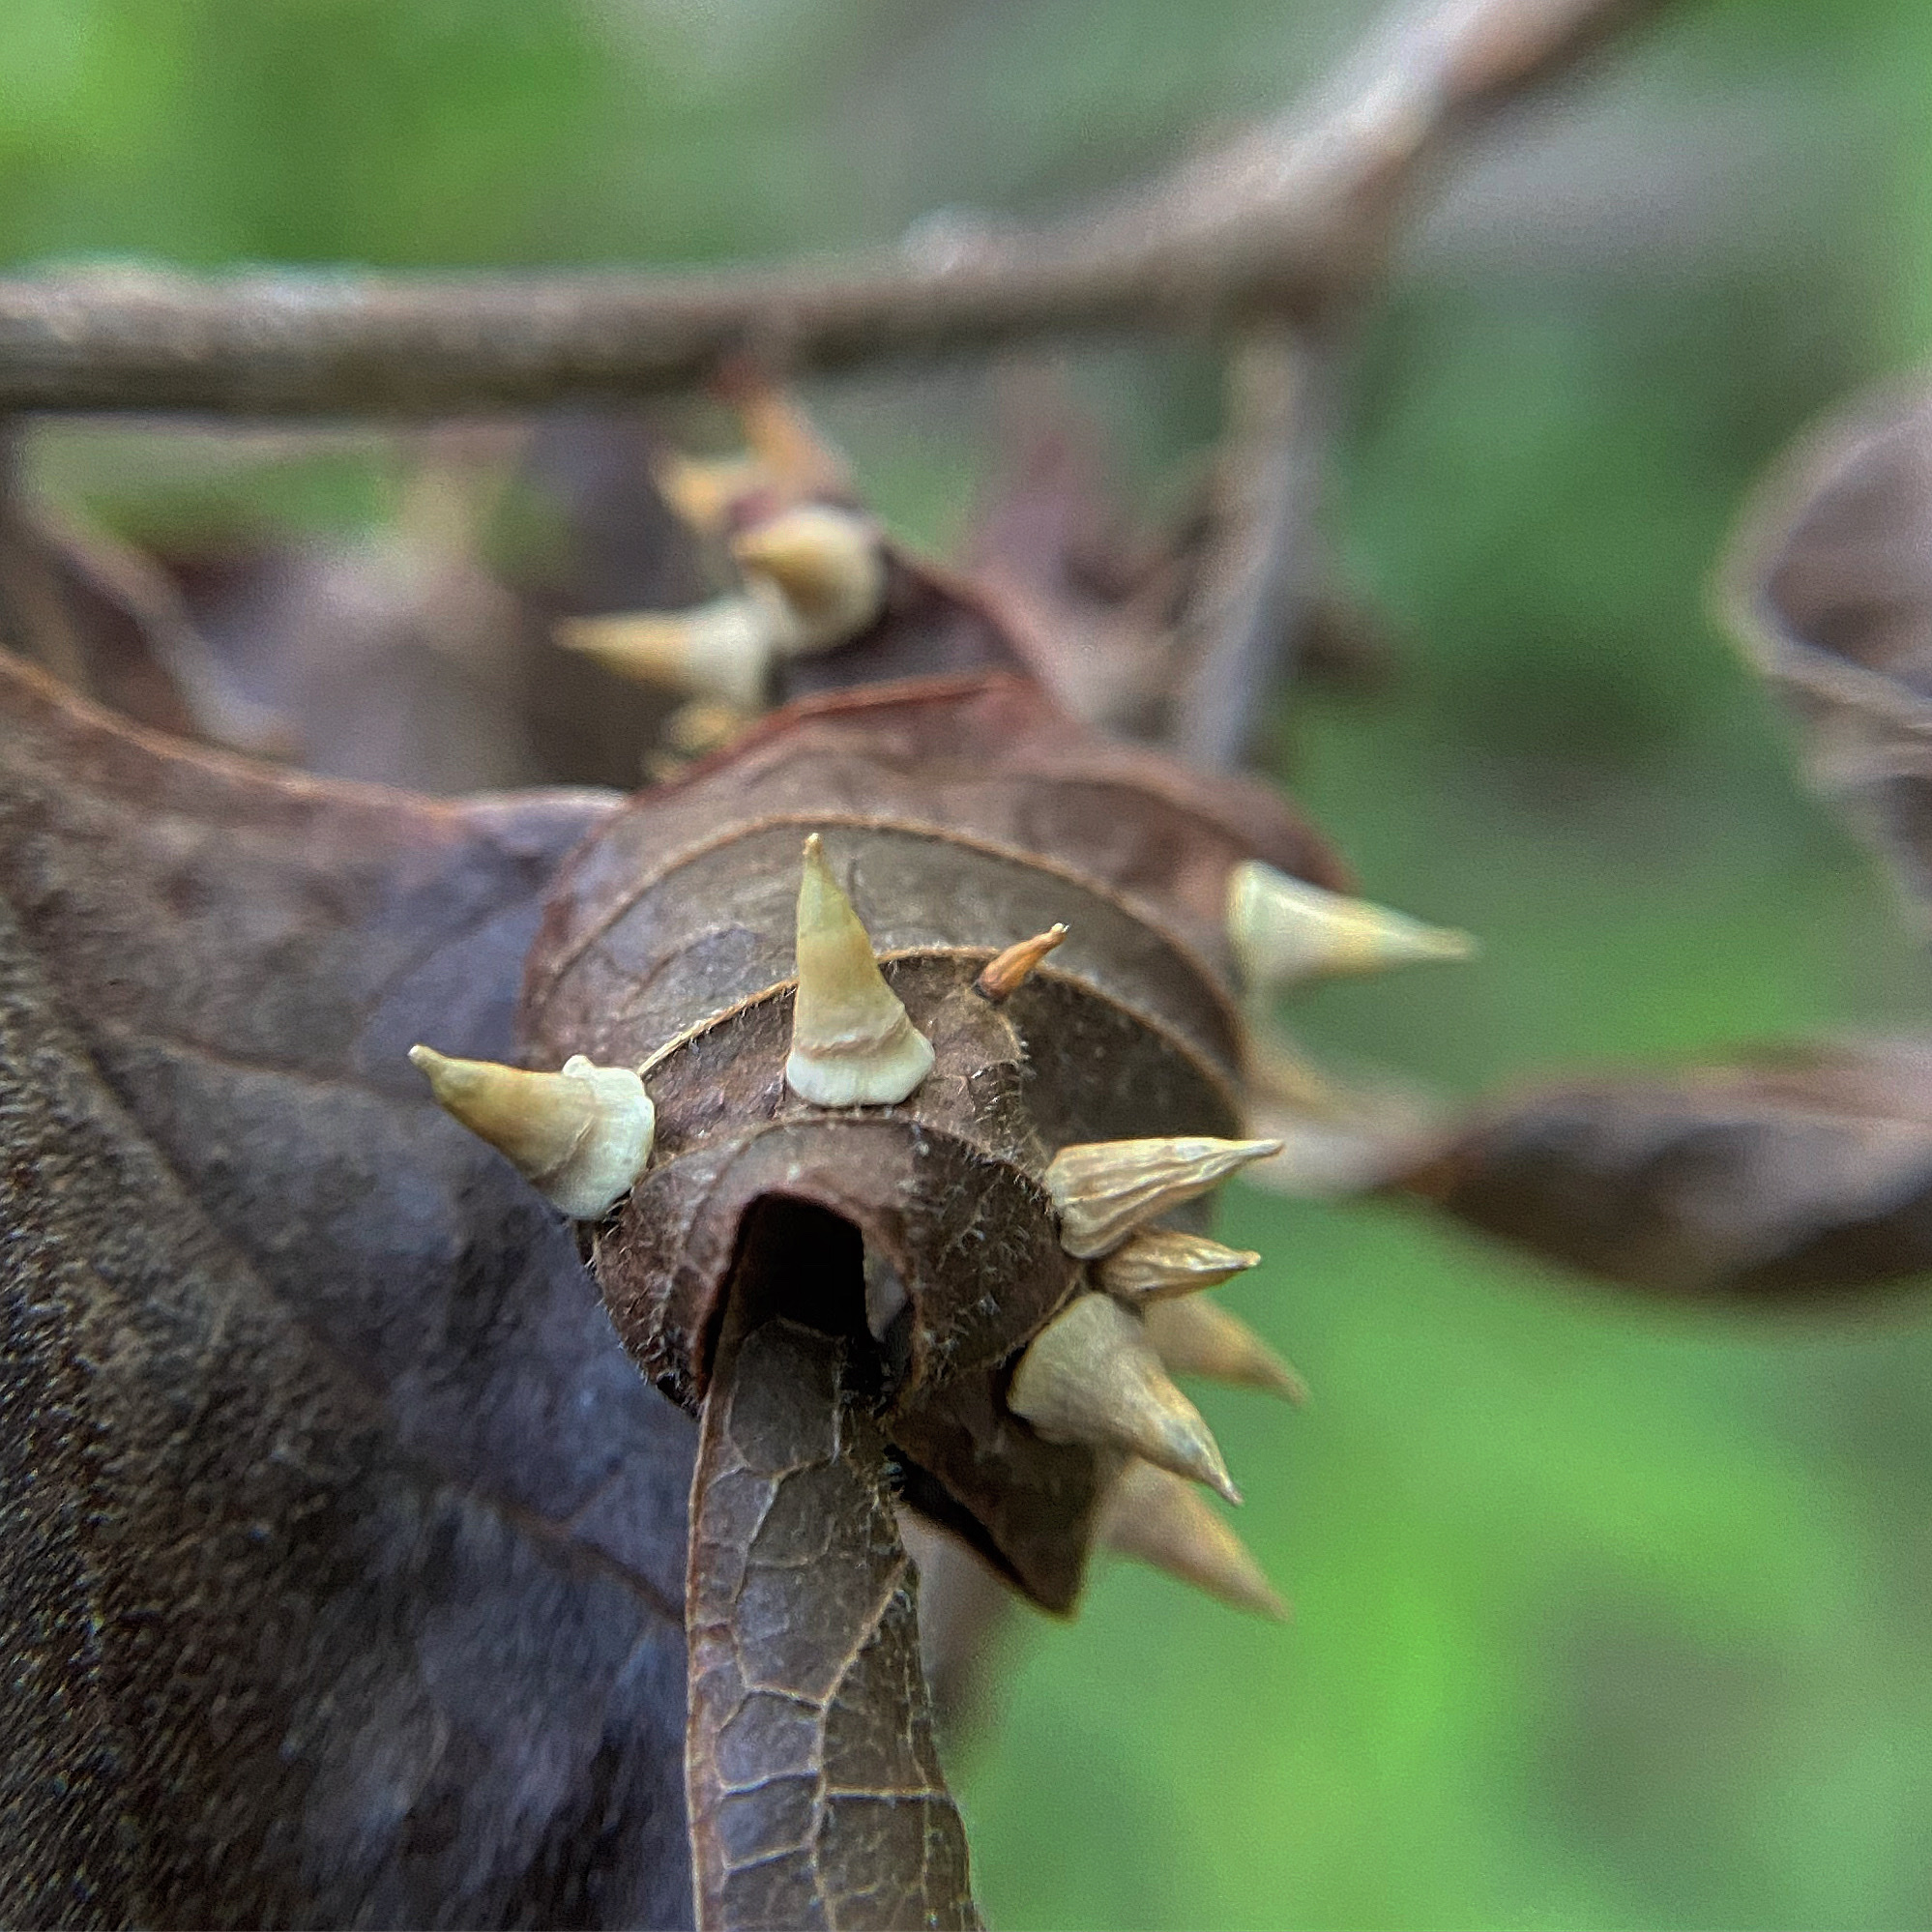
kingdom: Animalia
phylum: Arthropoda
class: Insecta
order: Diptera
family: Cecidomyiidae
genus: Celticecis
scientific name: Celticecis spiniformis
